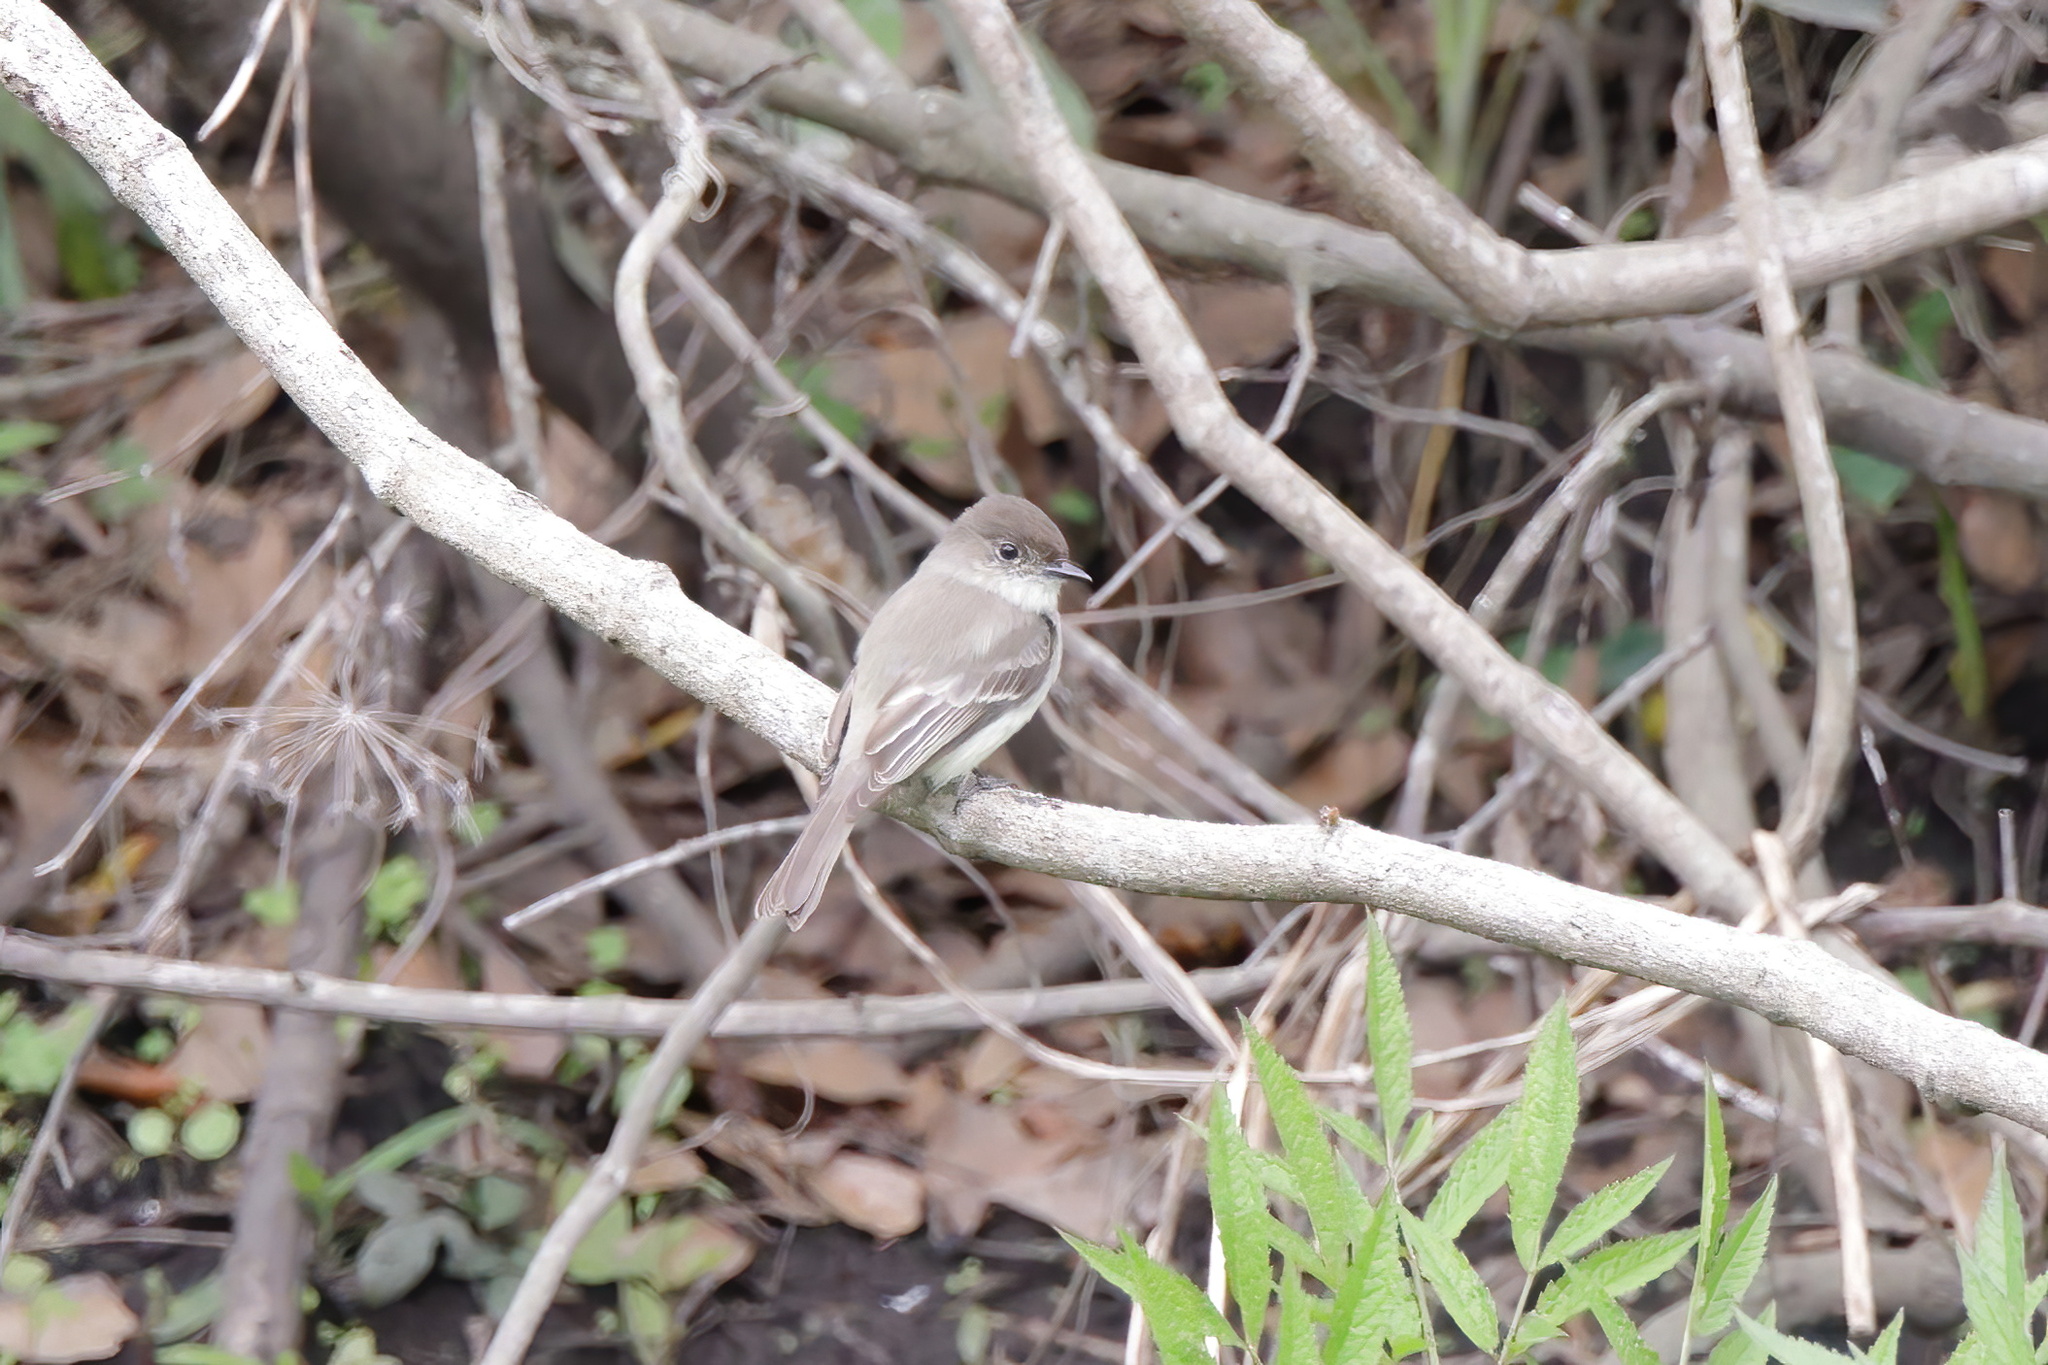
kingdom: Animalia
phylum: Chordata
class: Aves
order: Passeriformes
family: Tyrannidae
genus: Sayornis
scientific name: Sayornis phoebe
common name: Eastern phoebe
